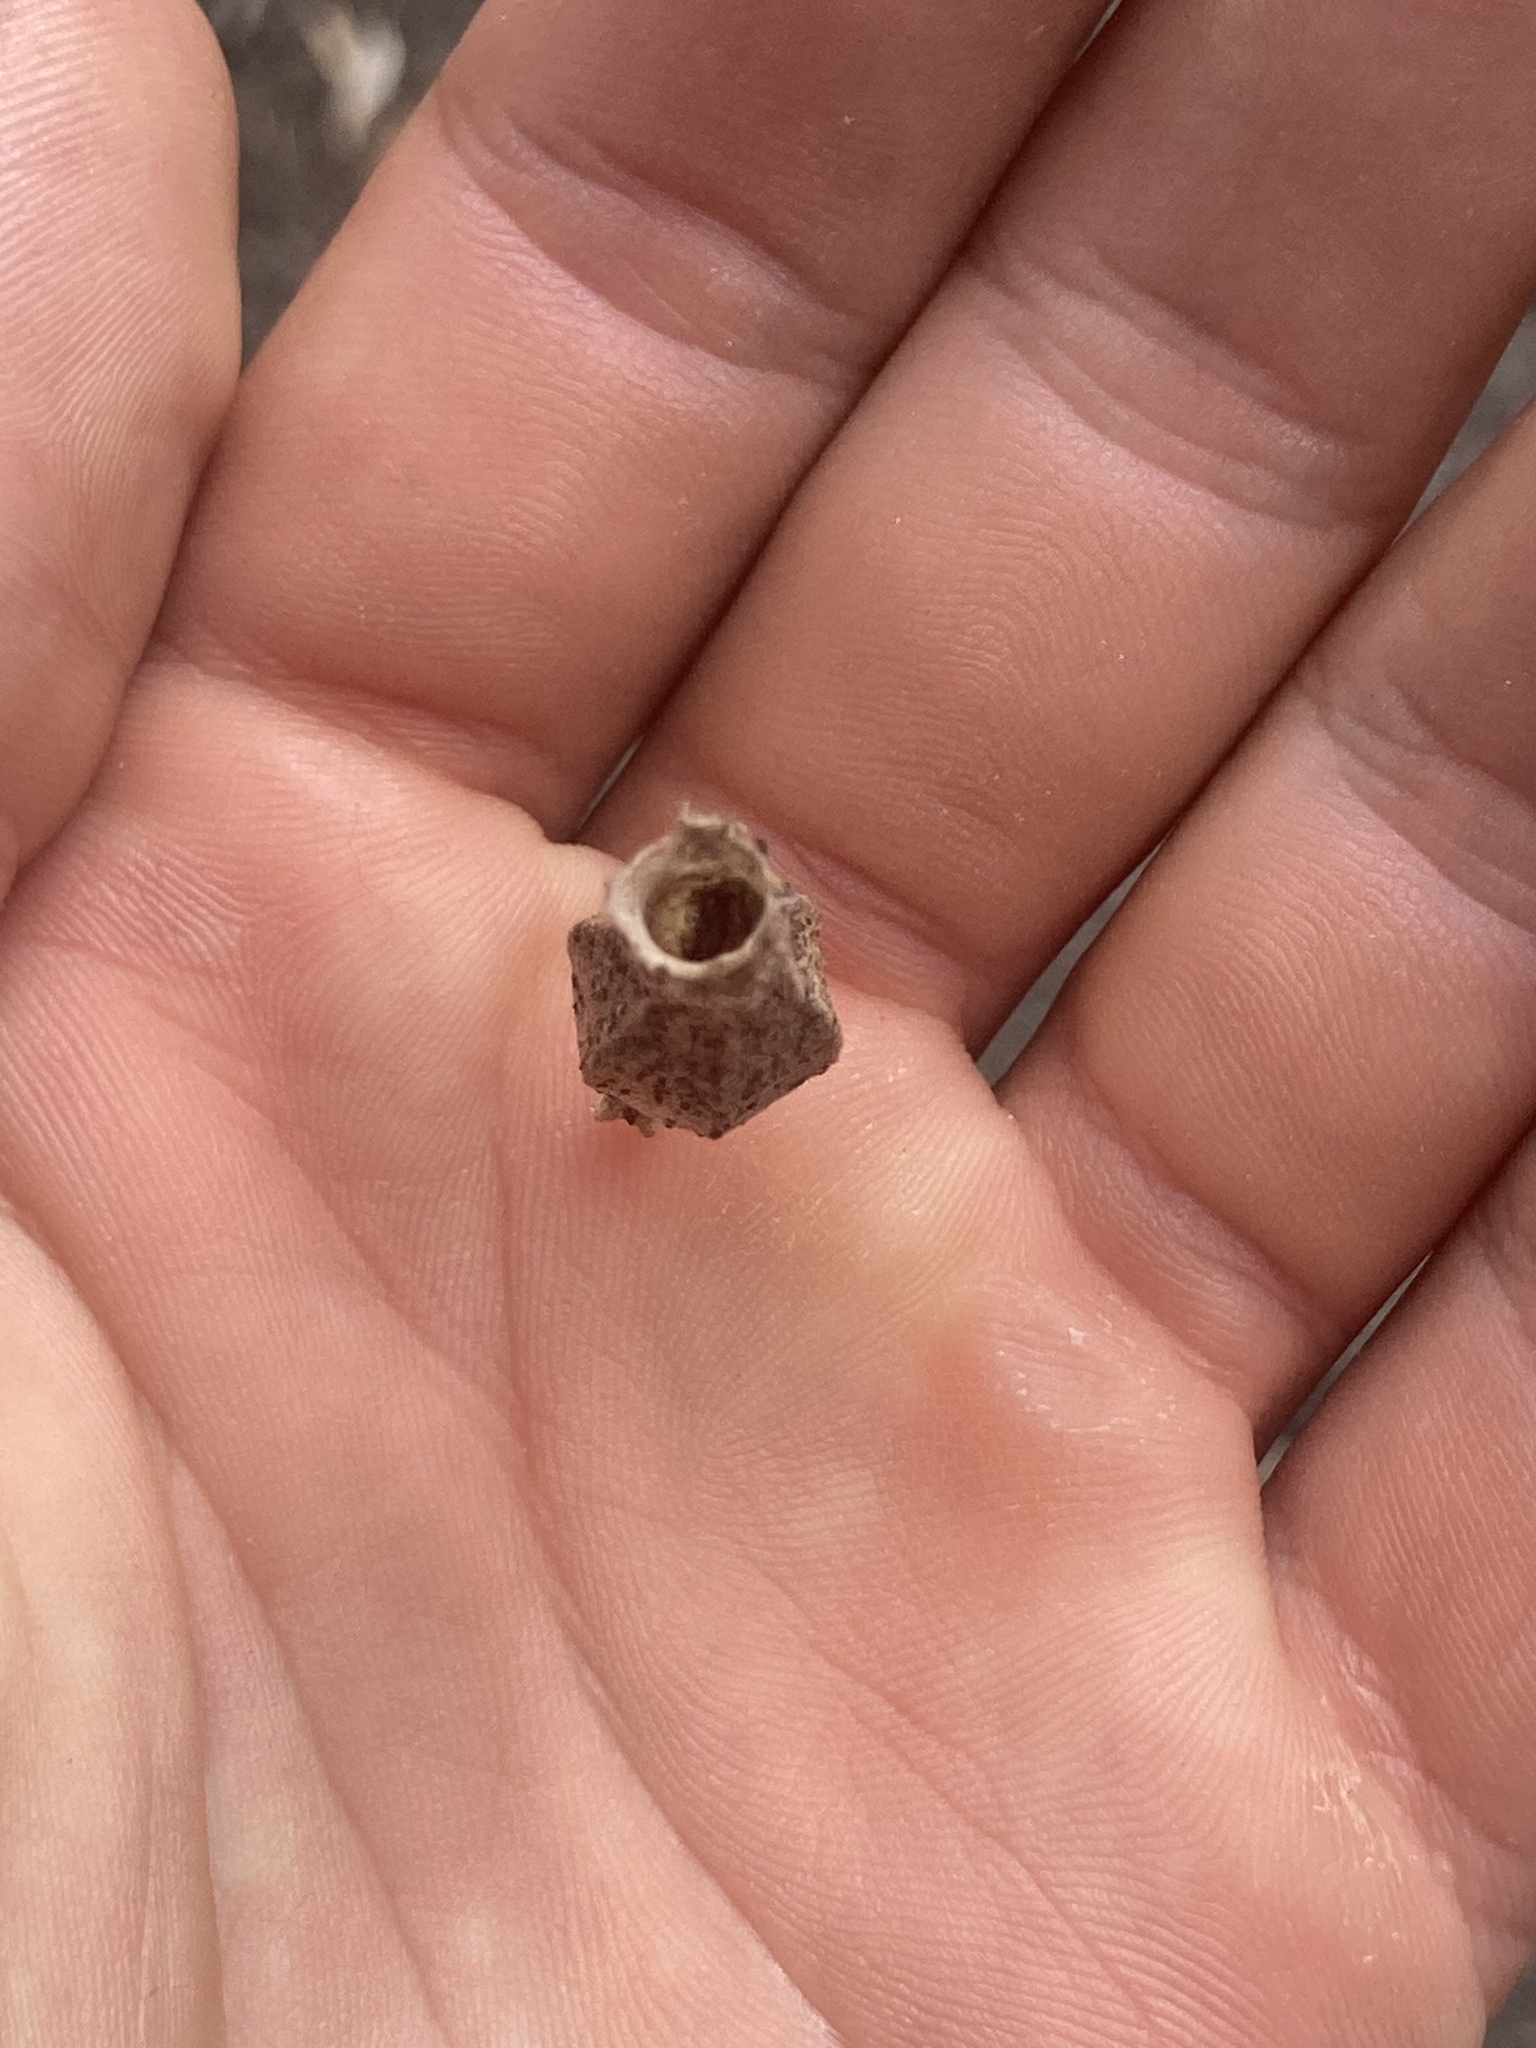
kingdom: Animalia
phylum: Arthropoda
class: Insecta
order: Lepidoptera
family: Psychidae
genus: Hyalarcta
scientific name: Hyalarcta nigrescens
